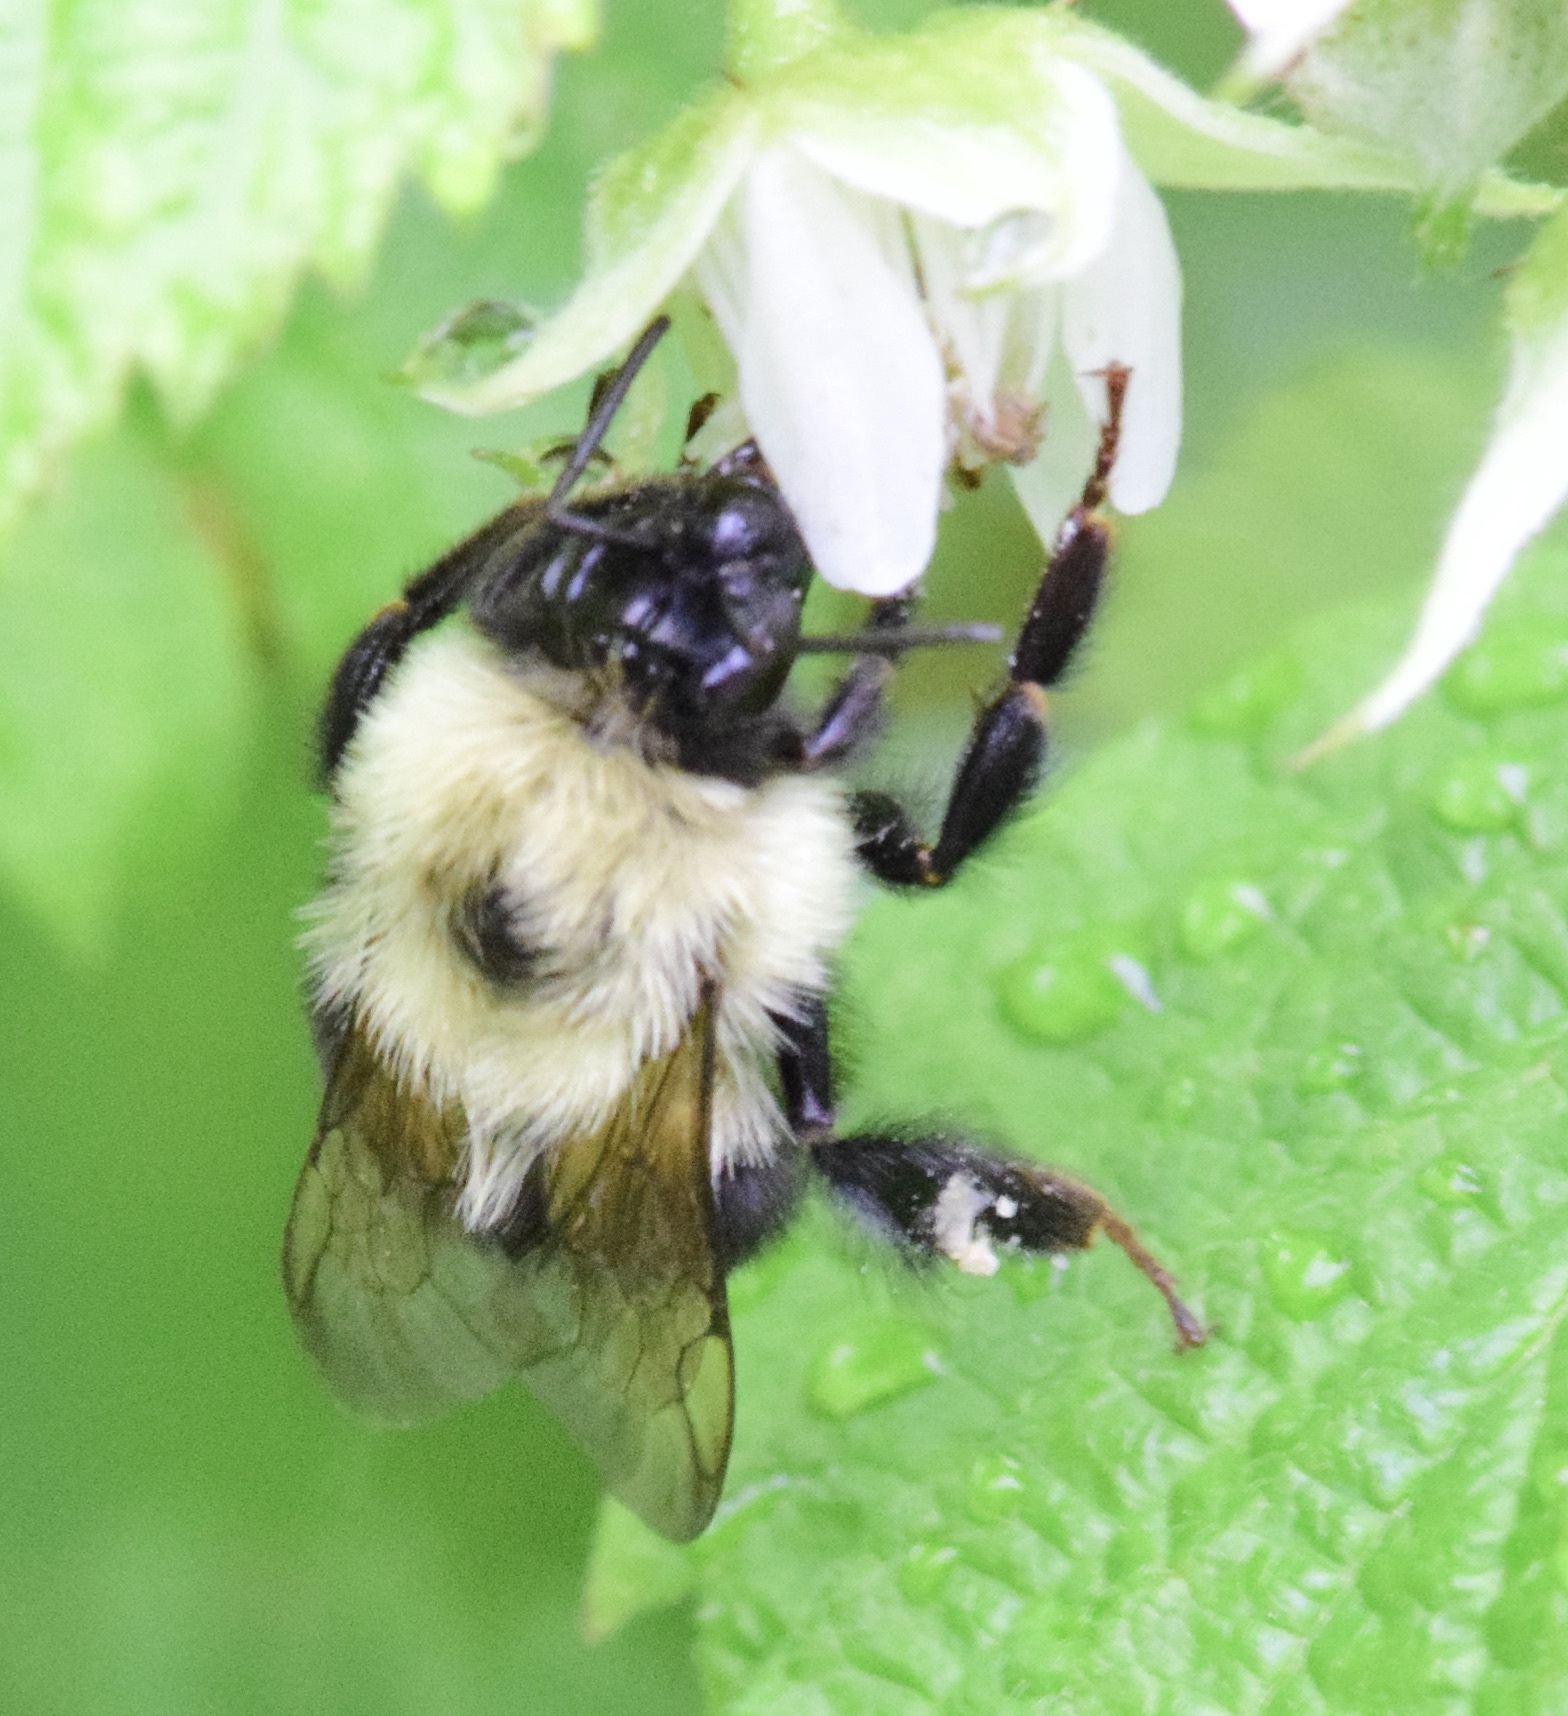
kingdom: Animalia
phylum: Arthropoda
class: Insecta
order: Hymenoptera
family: Apidae
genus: Bombus
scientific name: Bombus bimaculatus
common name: Two-spotted bumble bee
